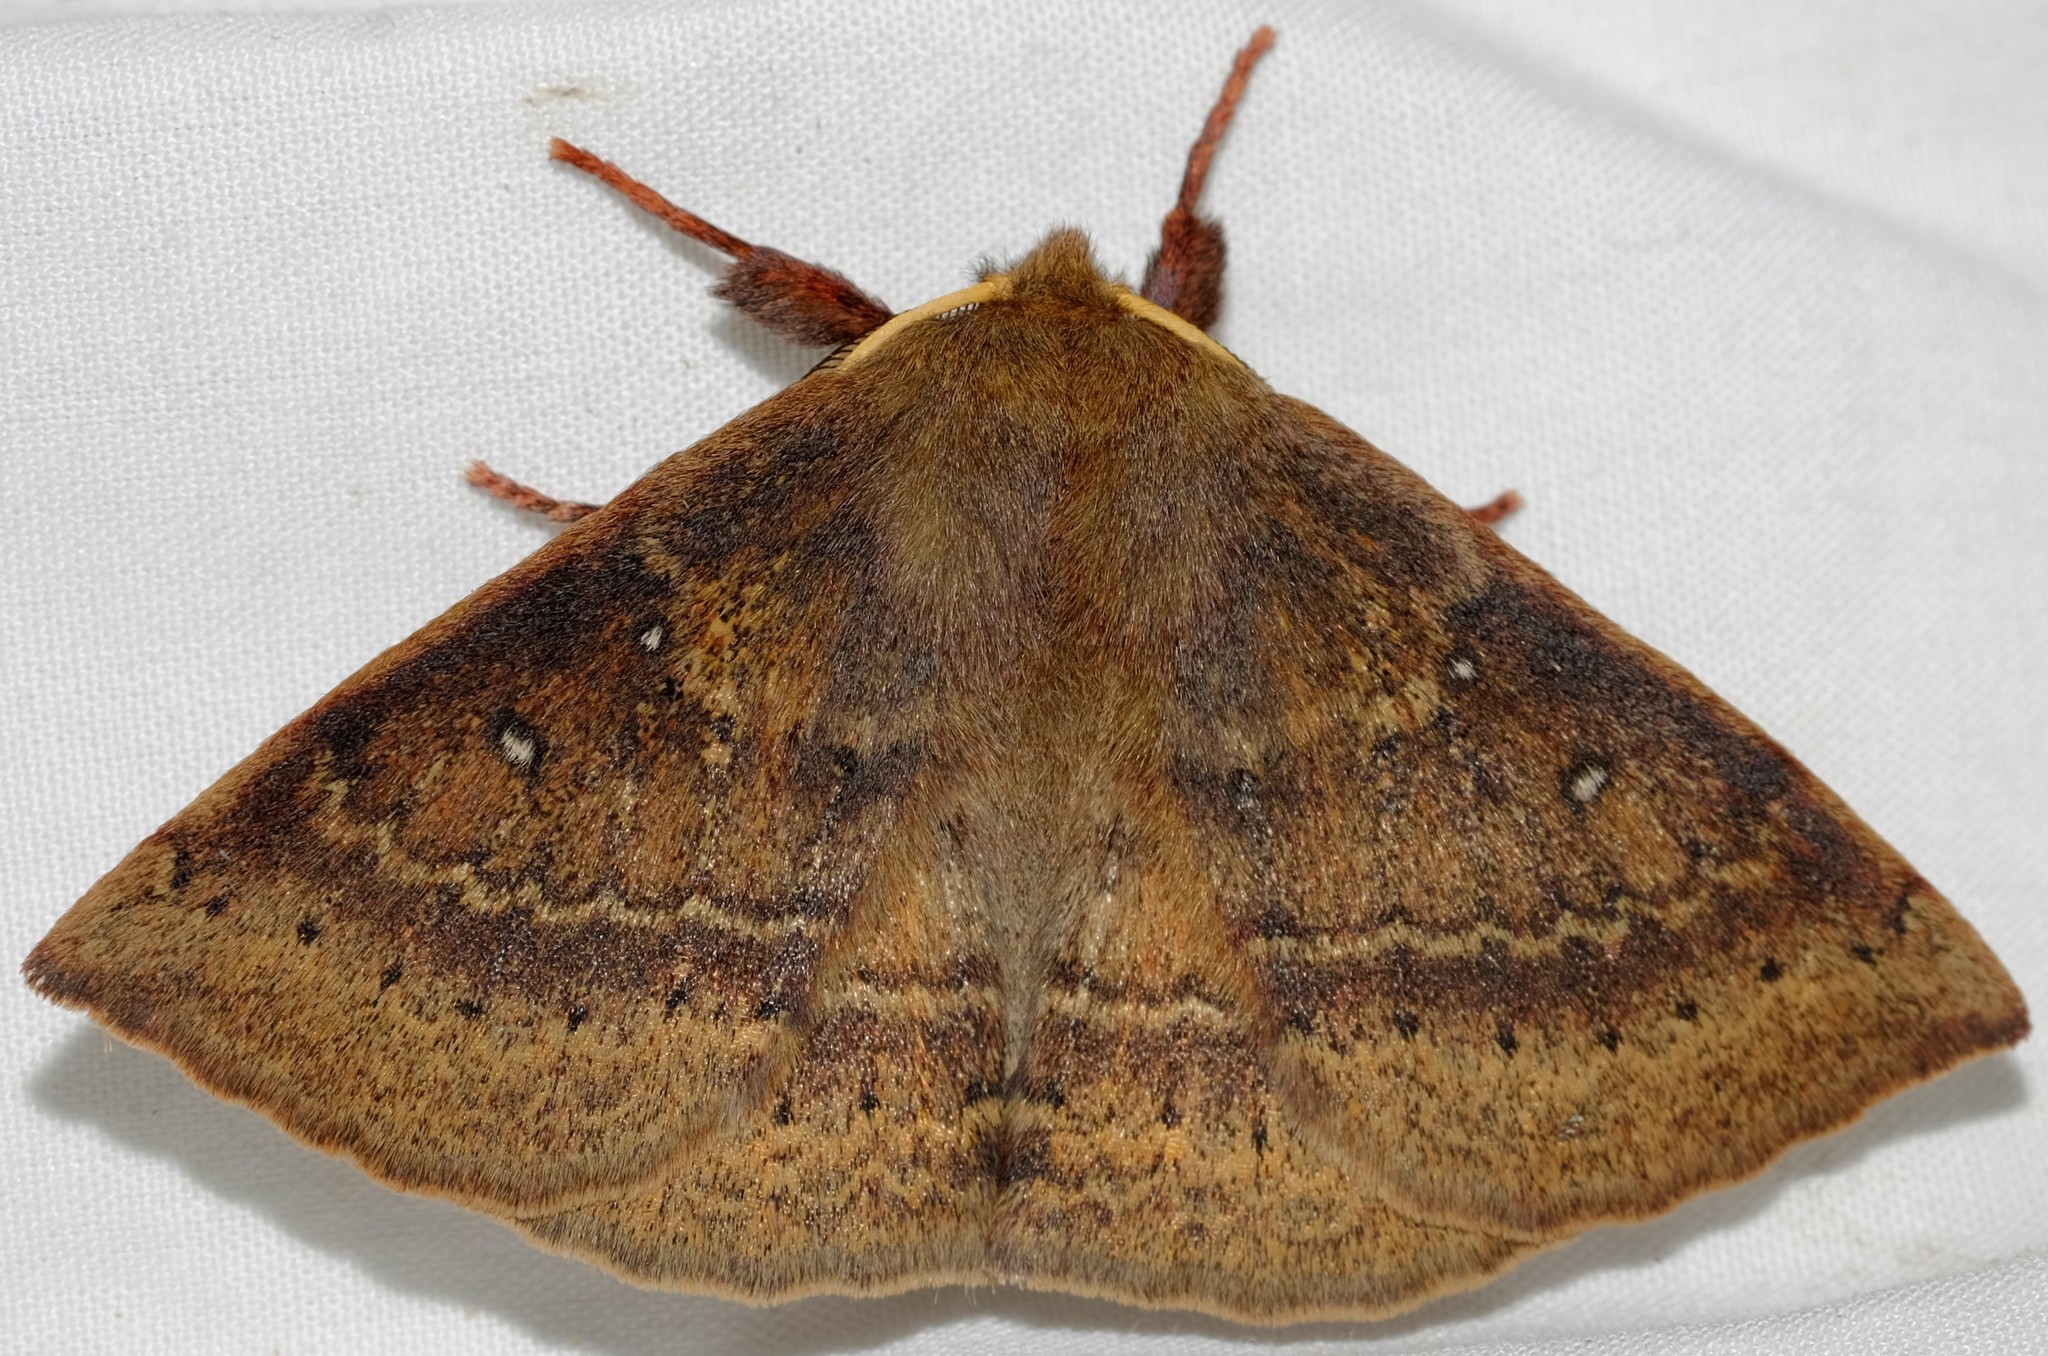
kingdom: Animalia
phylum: Arthropoda
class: Insecta
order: Lepidoptera
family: Anthelidae
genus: Anthela
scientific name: Anthela repleta
